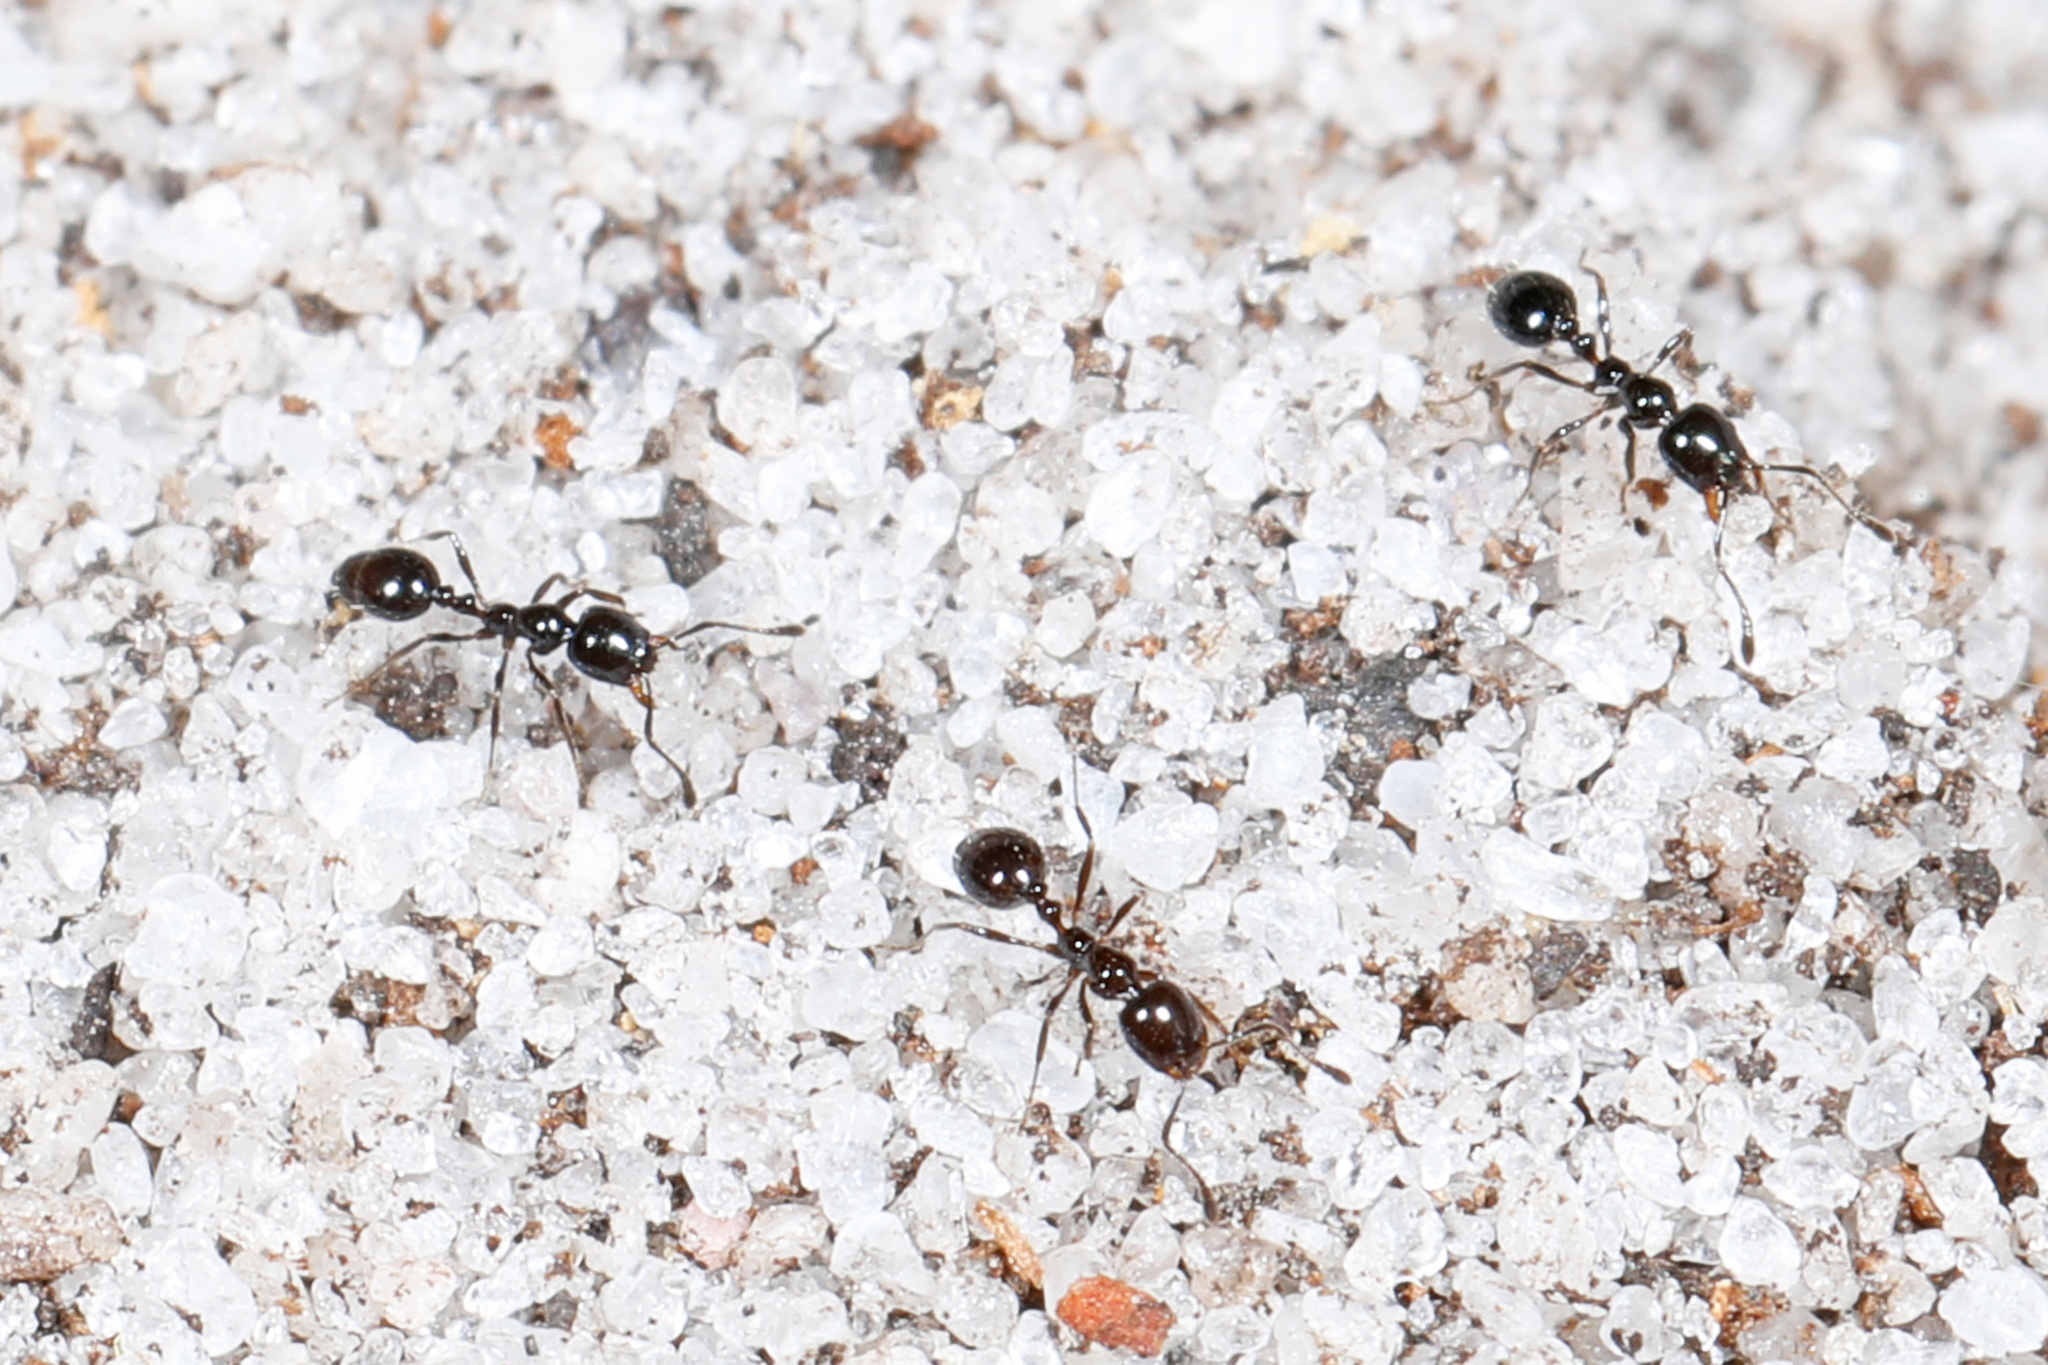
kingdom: Animalia
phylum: Arthropoda
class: Insecta
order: Hymenoptera
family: Formicidae
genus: Monomorium
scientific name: Monomorium viride
